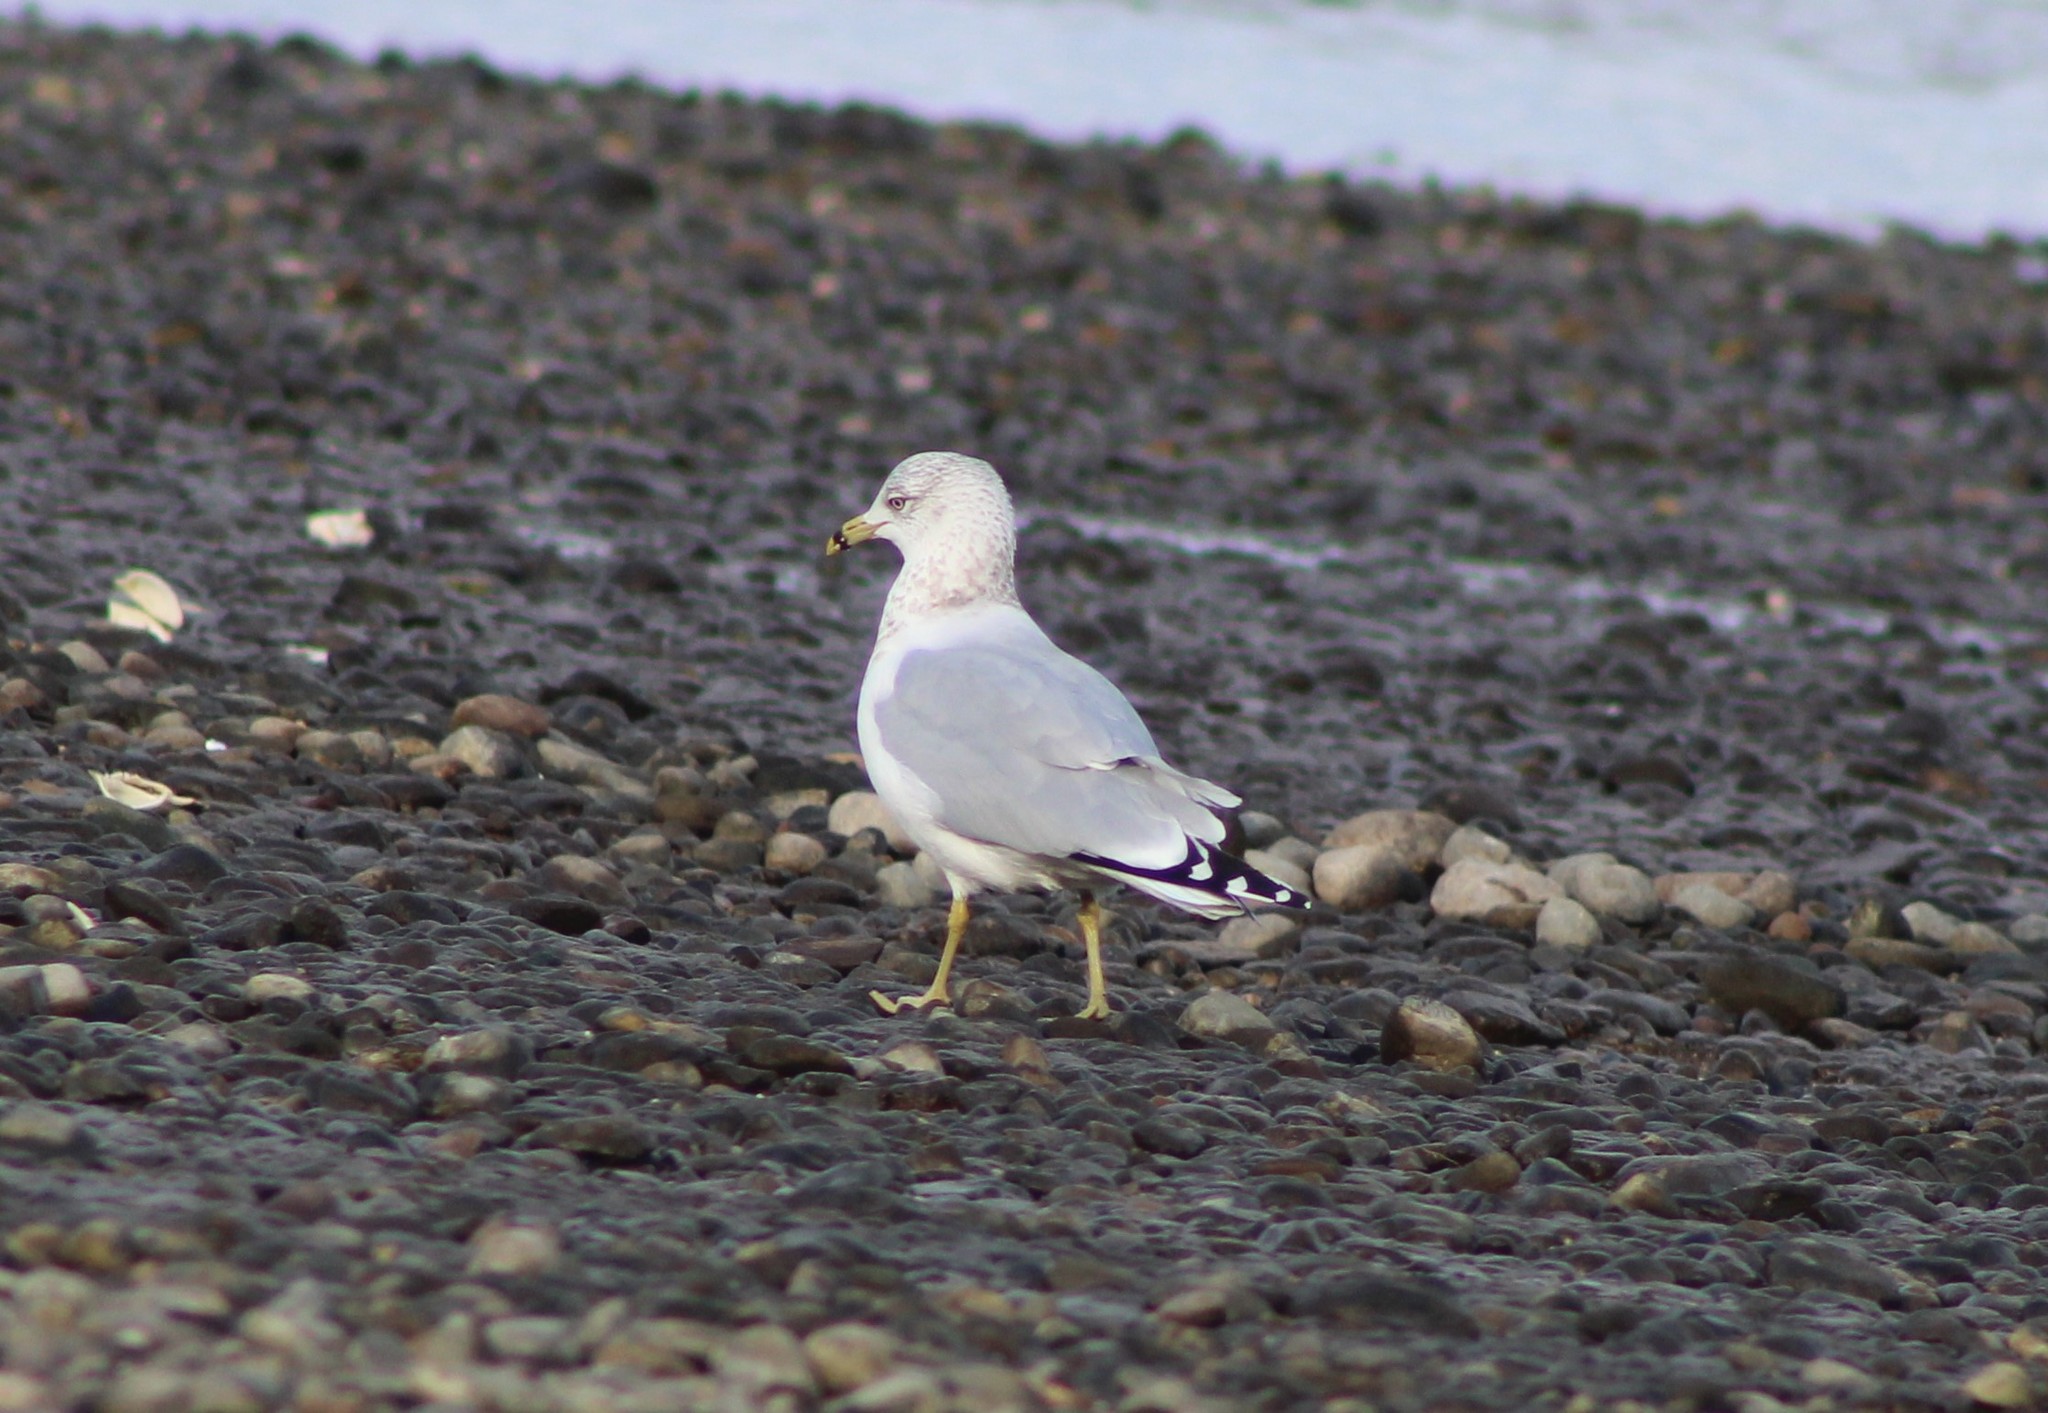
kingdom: Animalia
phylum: Chordata
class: Aves
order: Charadriiformes
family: Laridae
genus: Larus
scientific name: Larus delawarensis
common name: Ring-billed gull
